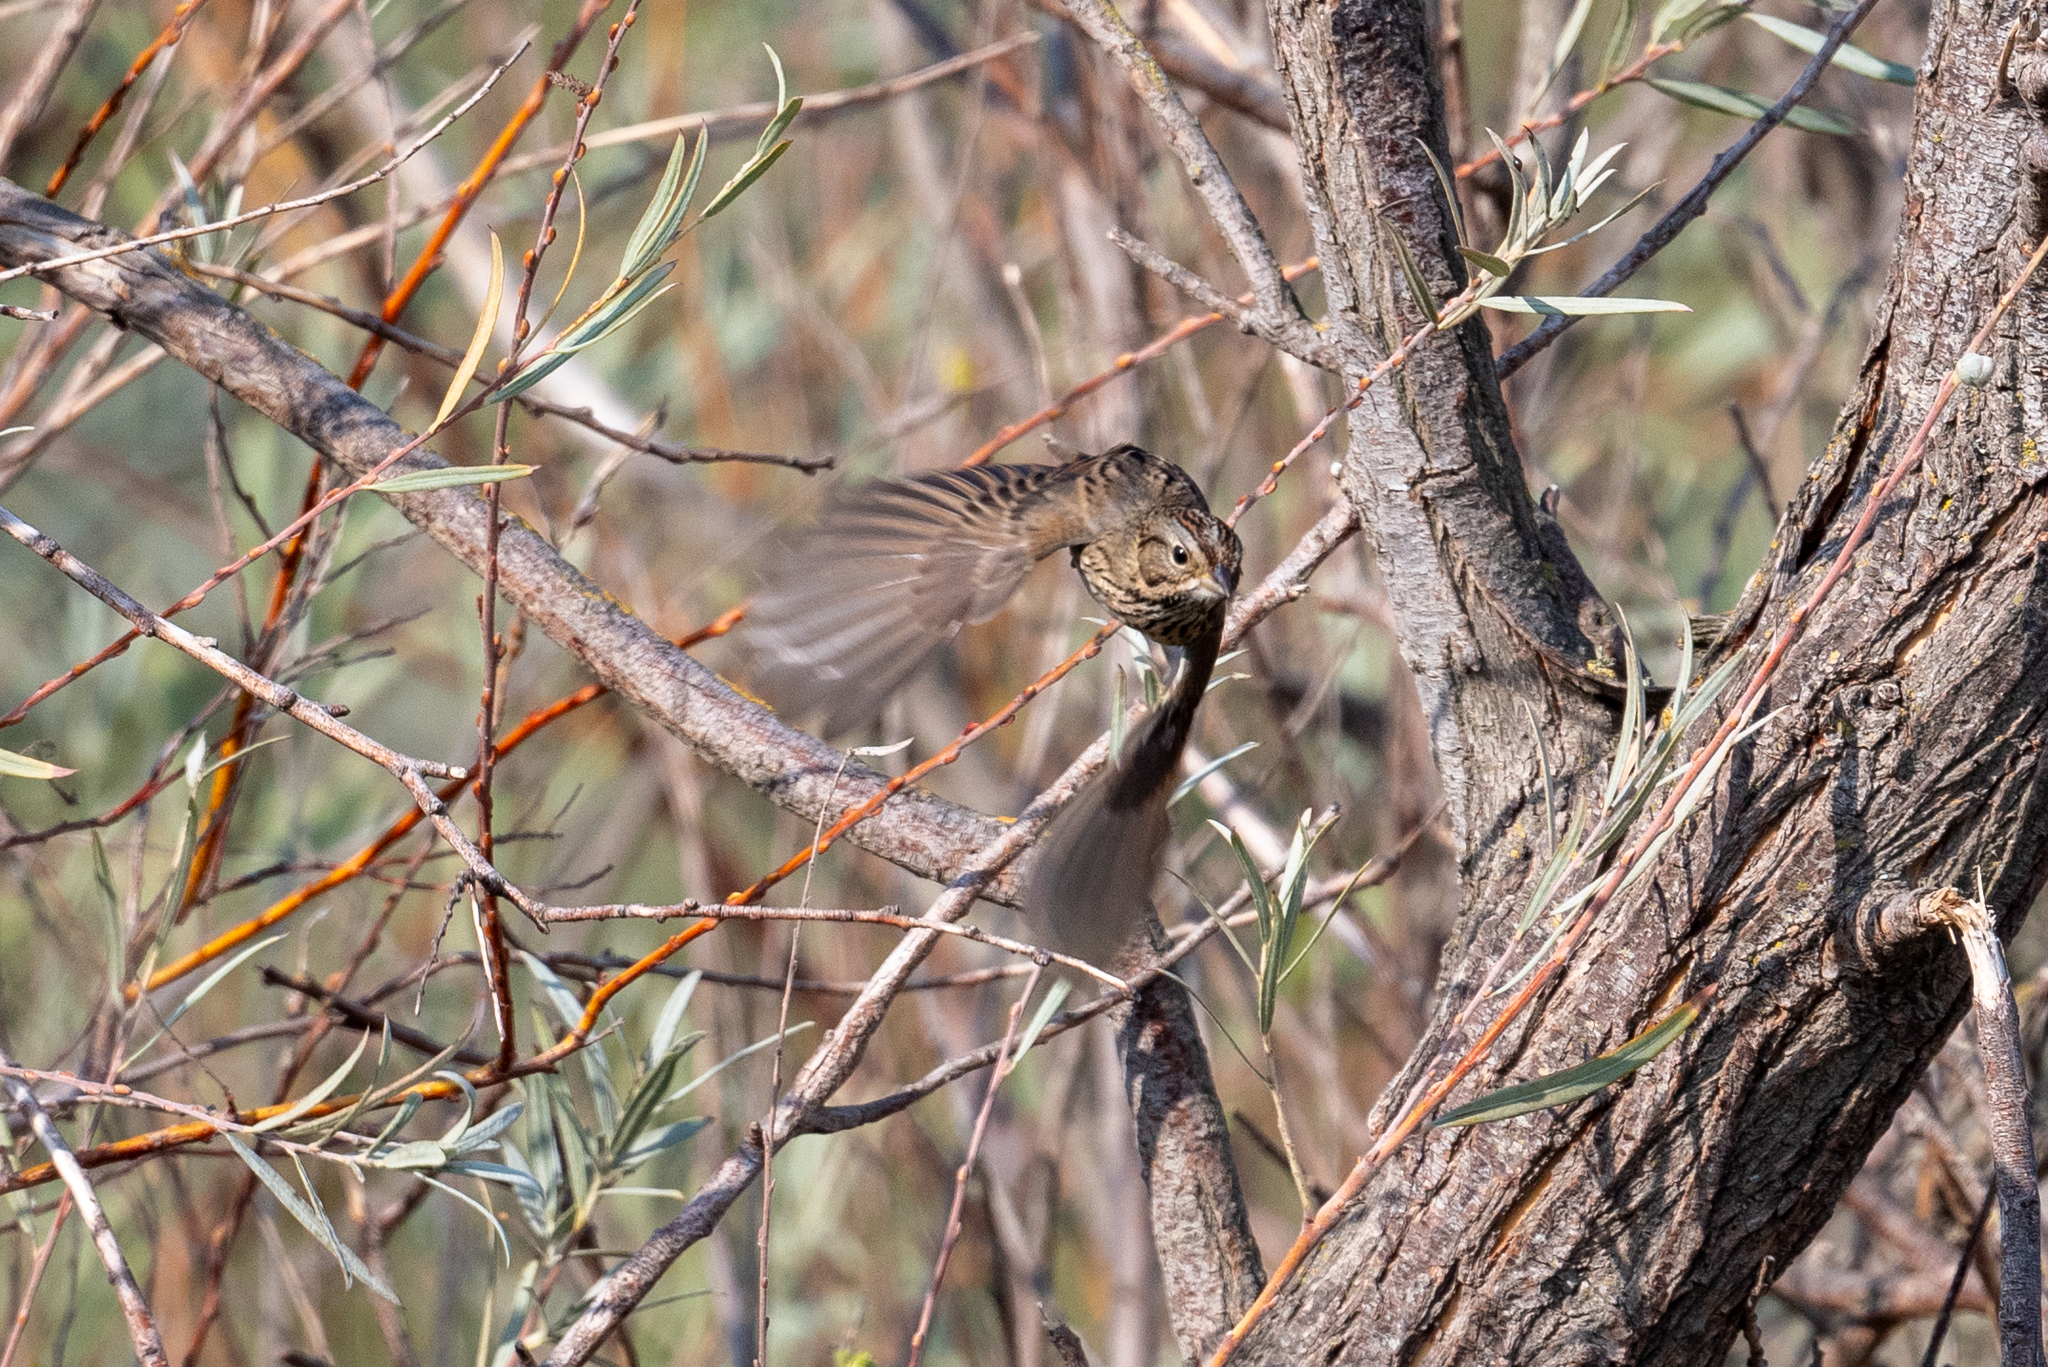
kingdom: Animalia
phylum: Chordata
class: Aves
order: Passeriformes
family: Passerellidae
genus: Melospiza
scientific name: Melospiza lincolnii
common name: Lincoln's sparrow
